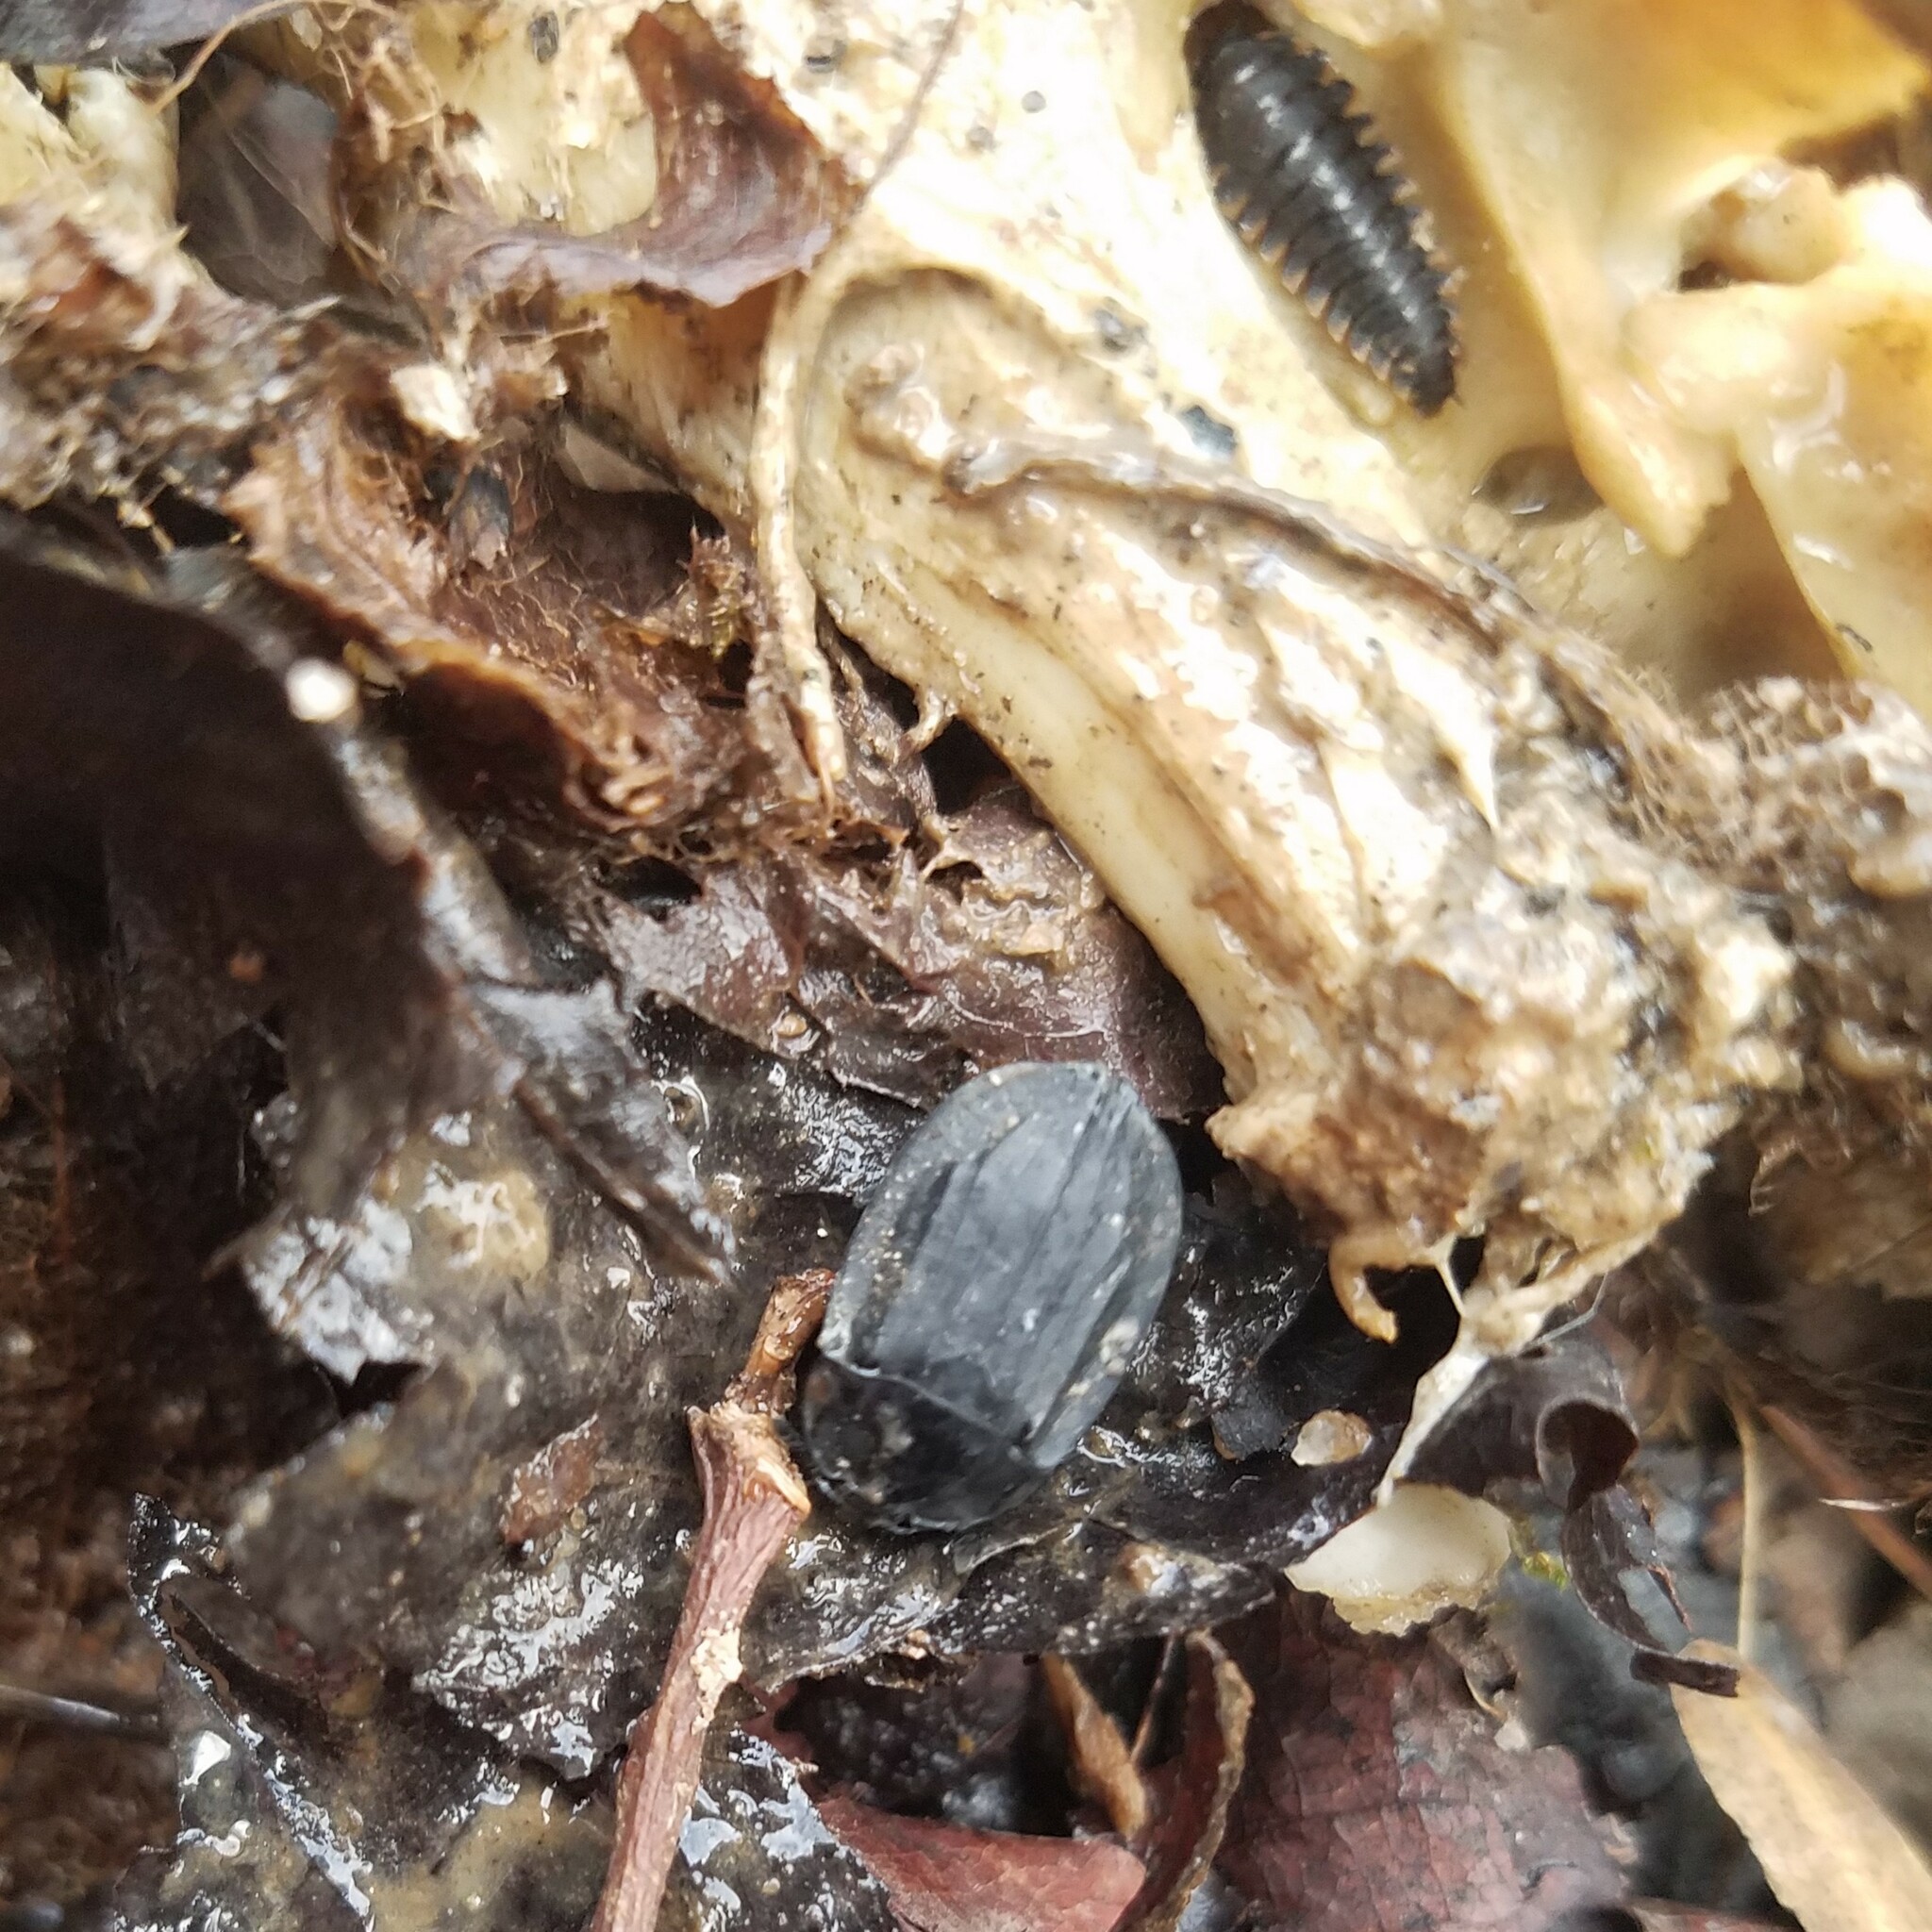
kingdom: Animalia
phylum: Arthropoda
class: Insecta
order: Coleoptera
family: Staphylinidae
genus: Oiceoptoma
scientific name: Oiceoptoma inaequale
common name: Ridged carrion beetle
